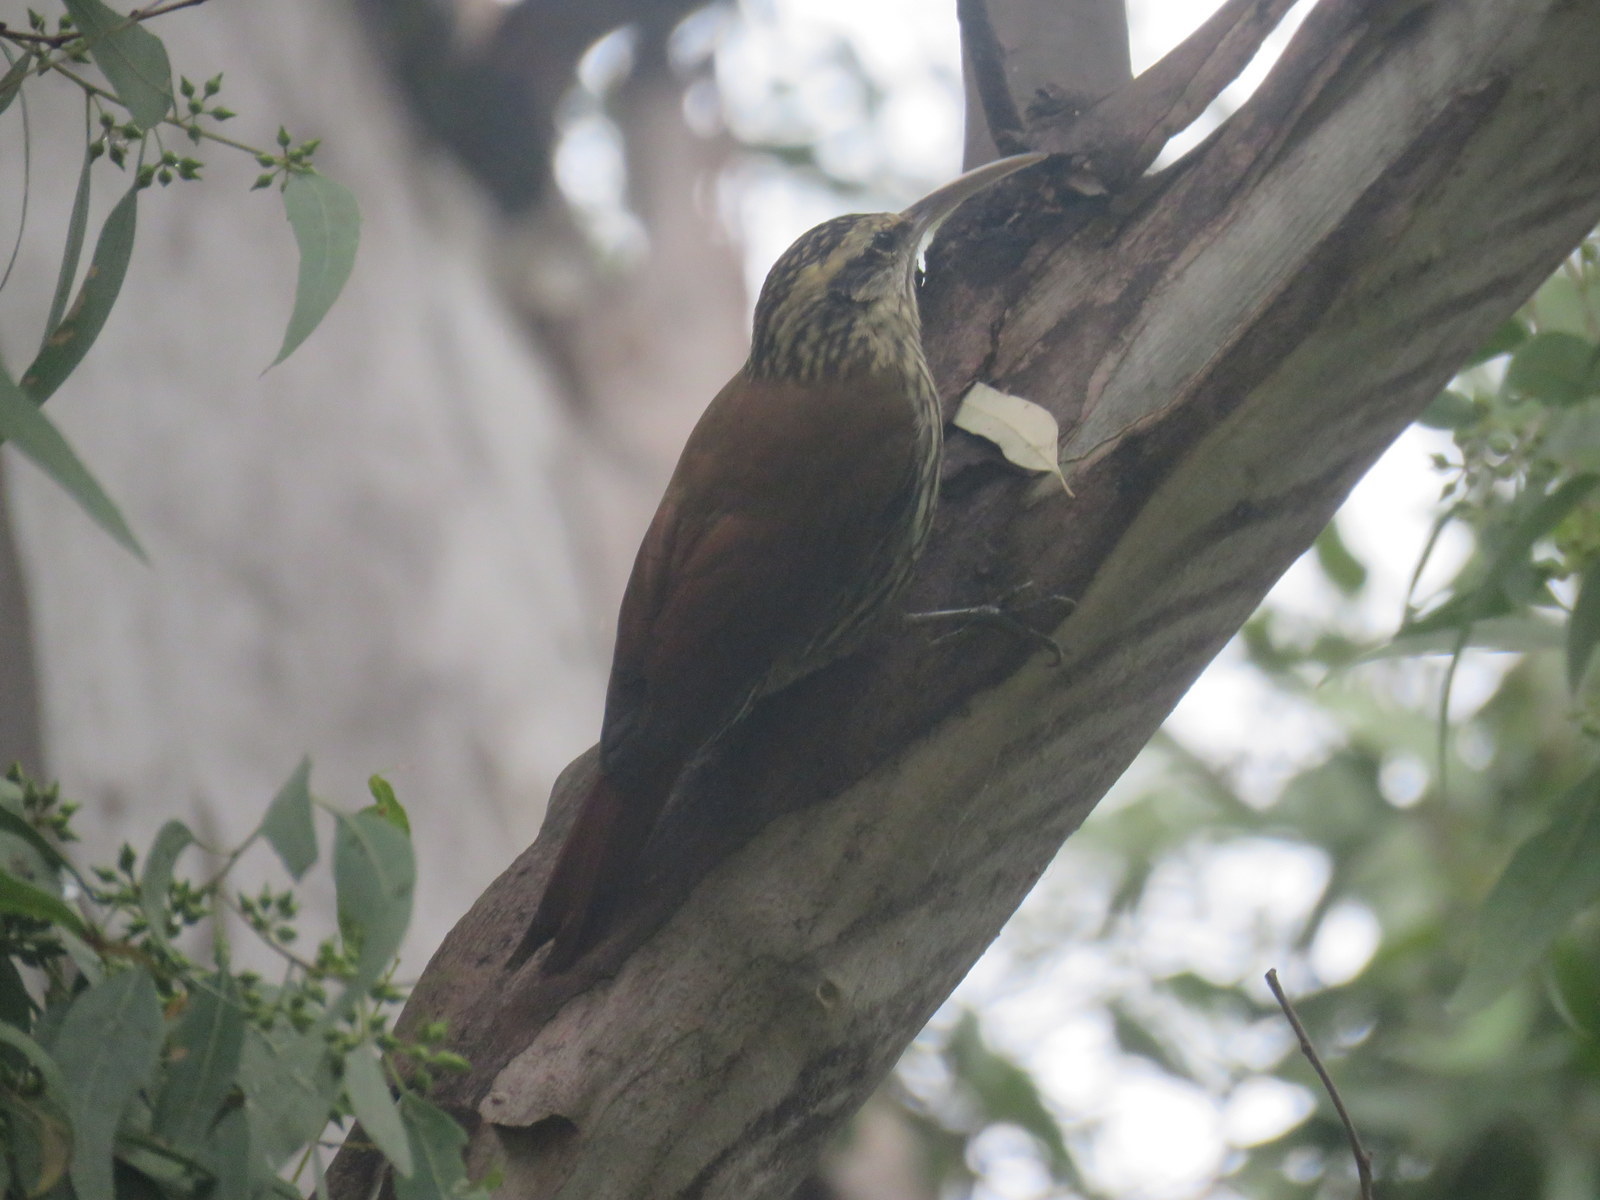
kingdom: Animalia
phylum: Chordata
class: Aves
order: Passeriformes
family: Furnariidae
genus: Lepidocolaptes
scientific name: Lepidocolaptes angustirostris
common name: Narrow-billed woodcreeper
